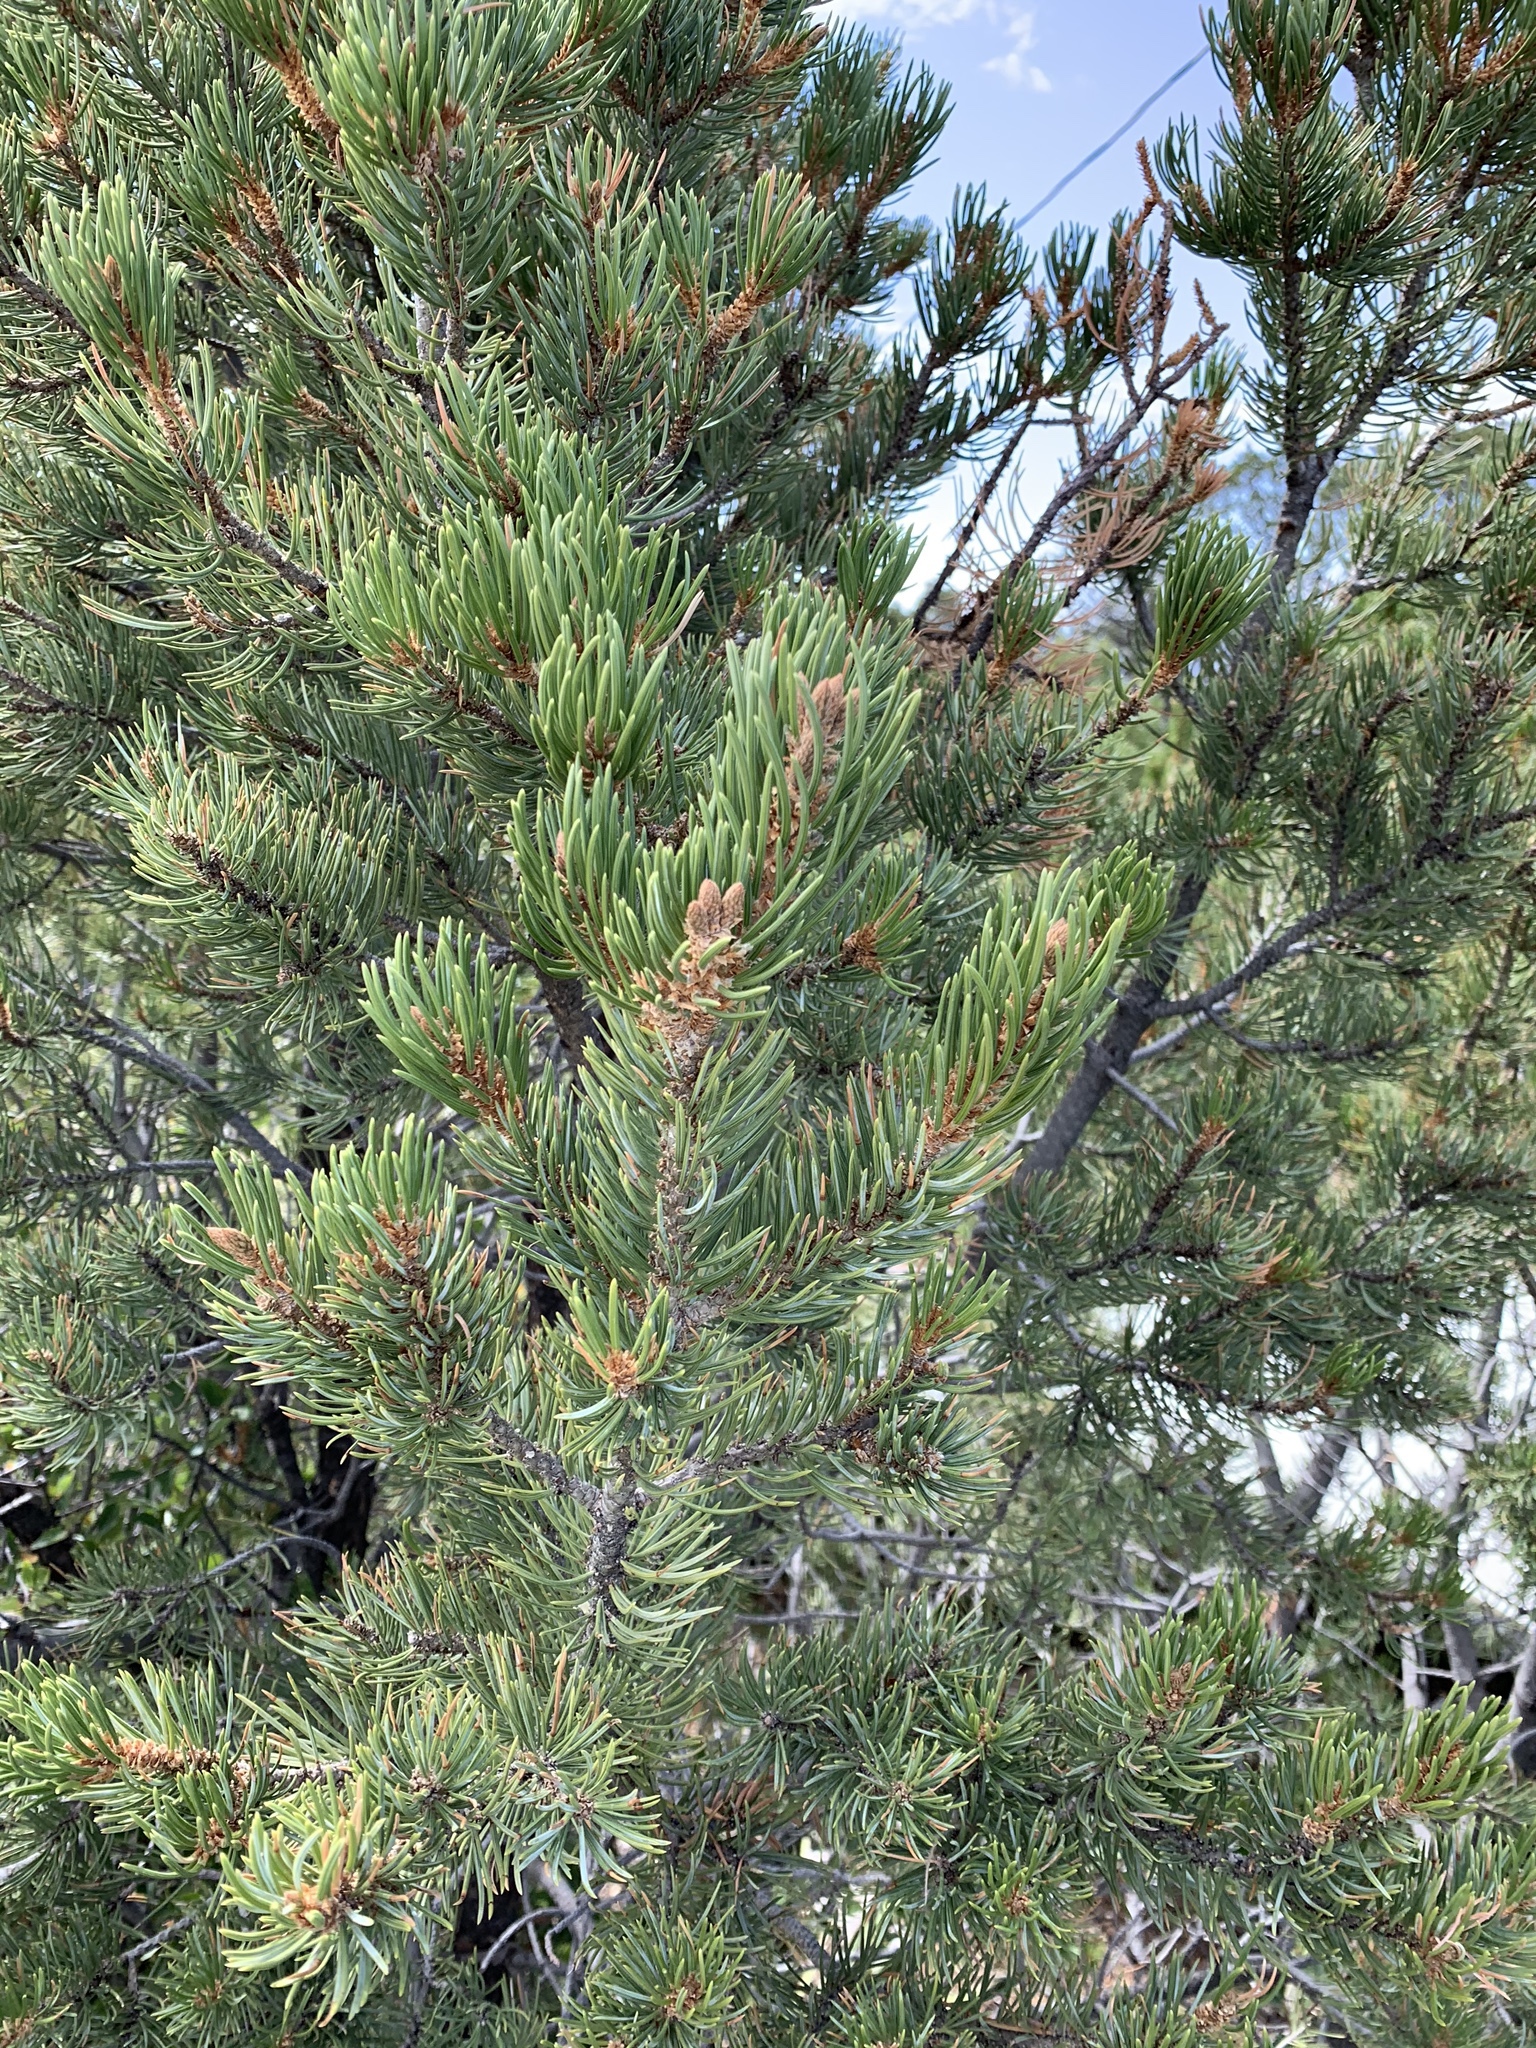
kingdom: Plantae
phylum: Tracheophyta
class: Pinopsida
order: Pinales
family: Pinaceae
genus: Pinus
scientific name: Pinus edulis
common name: Colorado pinyon
